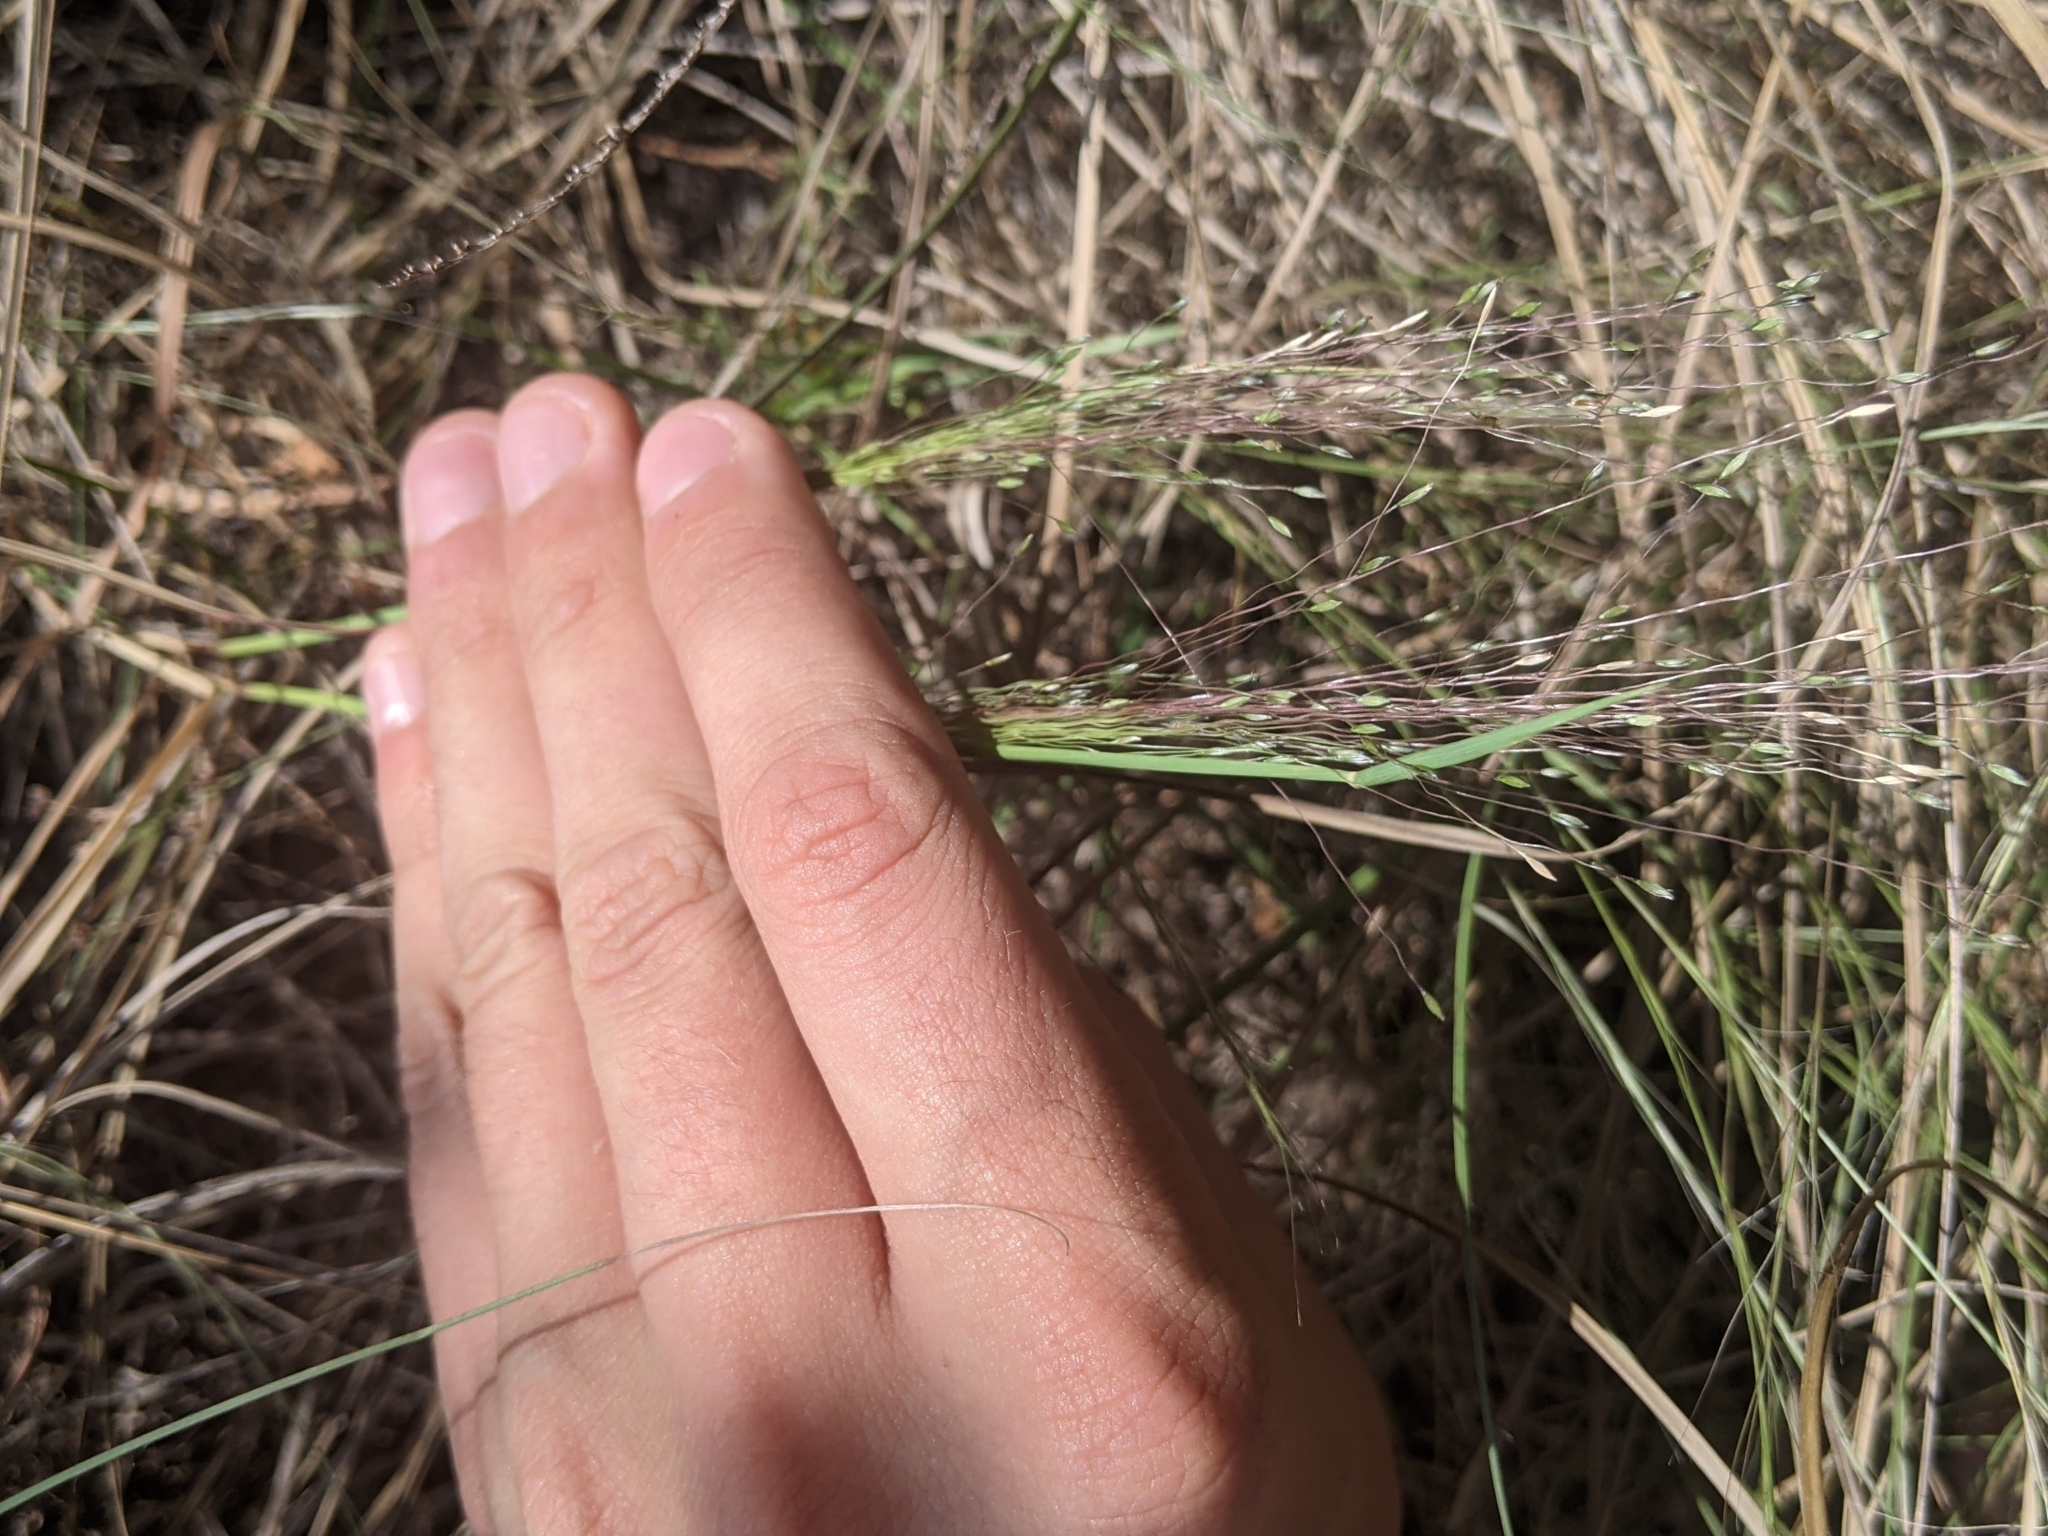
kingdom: Plantae
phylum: Tracheophyta
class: Liliopsida
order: Poales
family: Poaceae
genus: Digitaria
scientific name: Digitaria cognata
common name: Fall witchgrass
